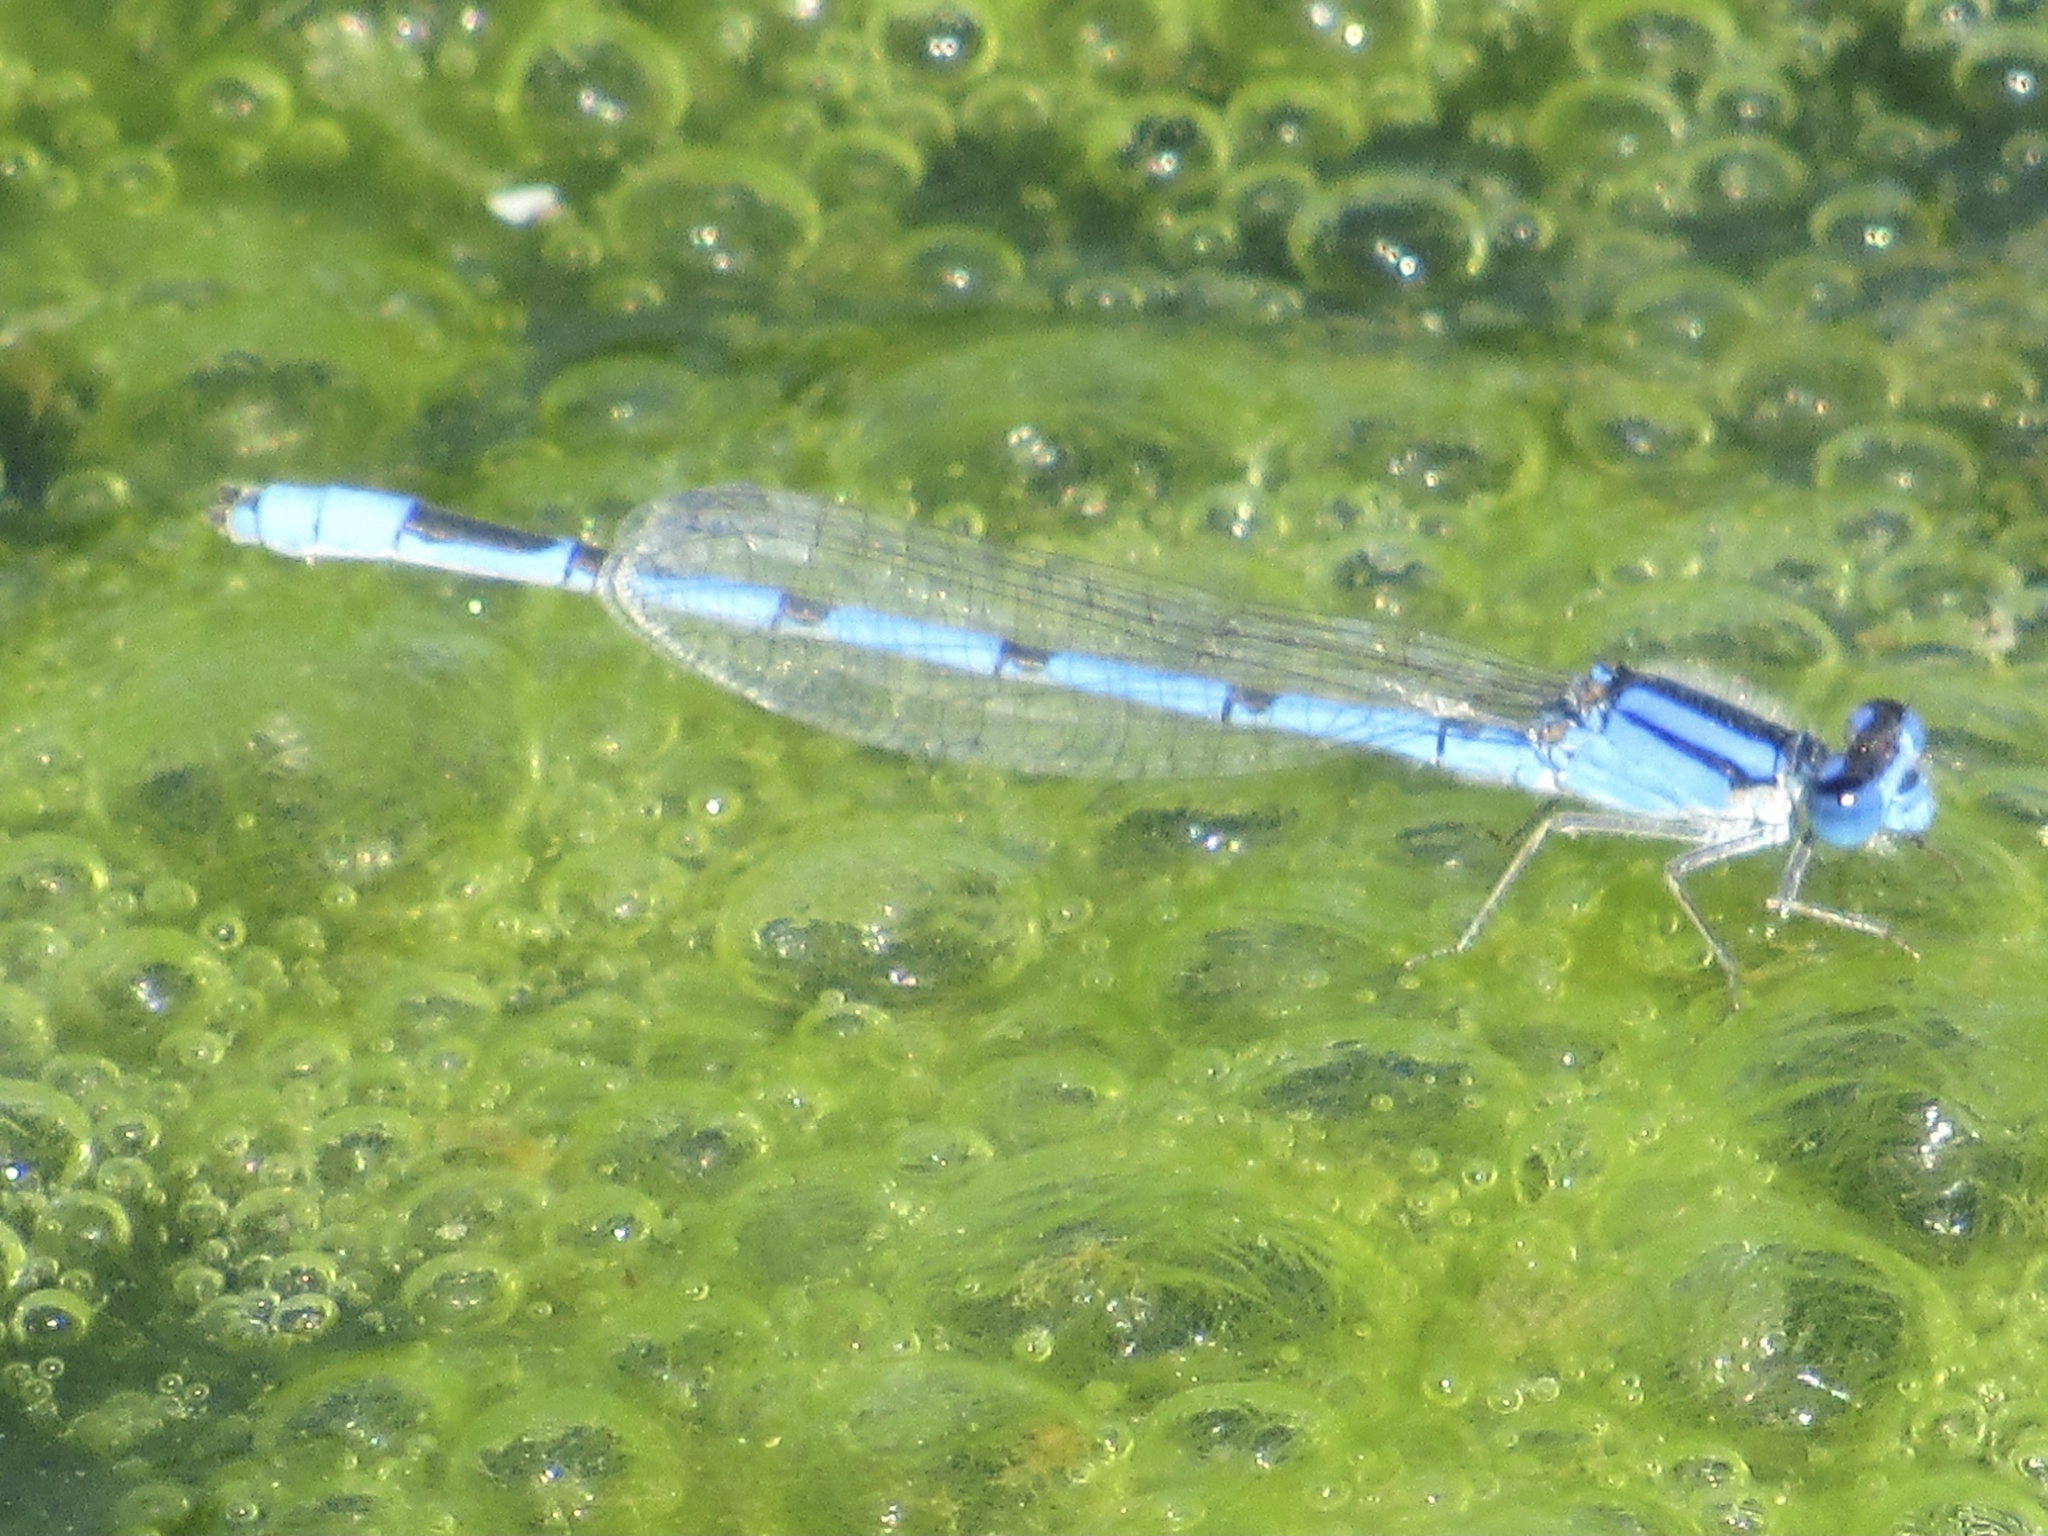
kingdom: Animalia
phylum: Arthropoda
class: Insecta
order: Odonata
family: Coenagrionidae
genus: Enallagma
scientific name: Enallagma civile
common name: Damselfly
